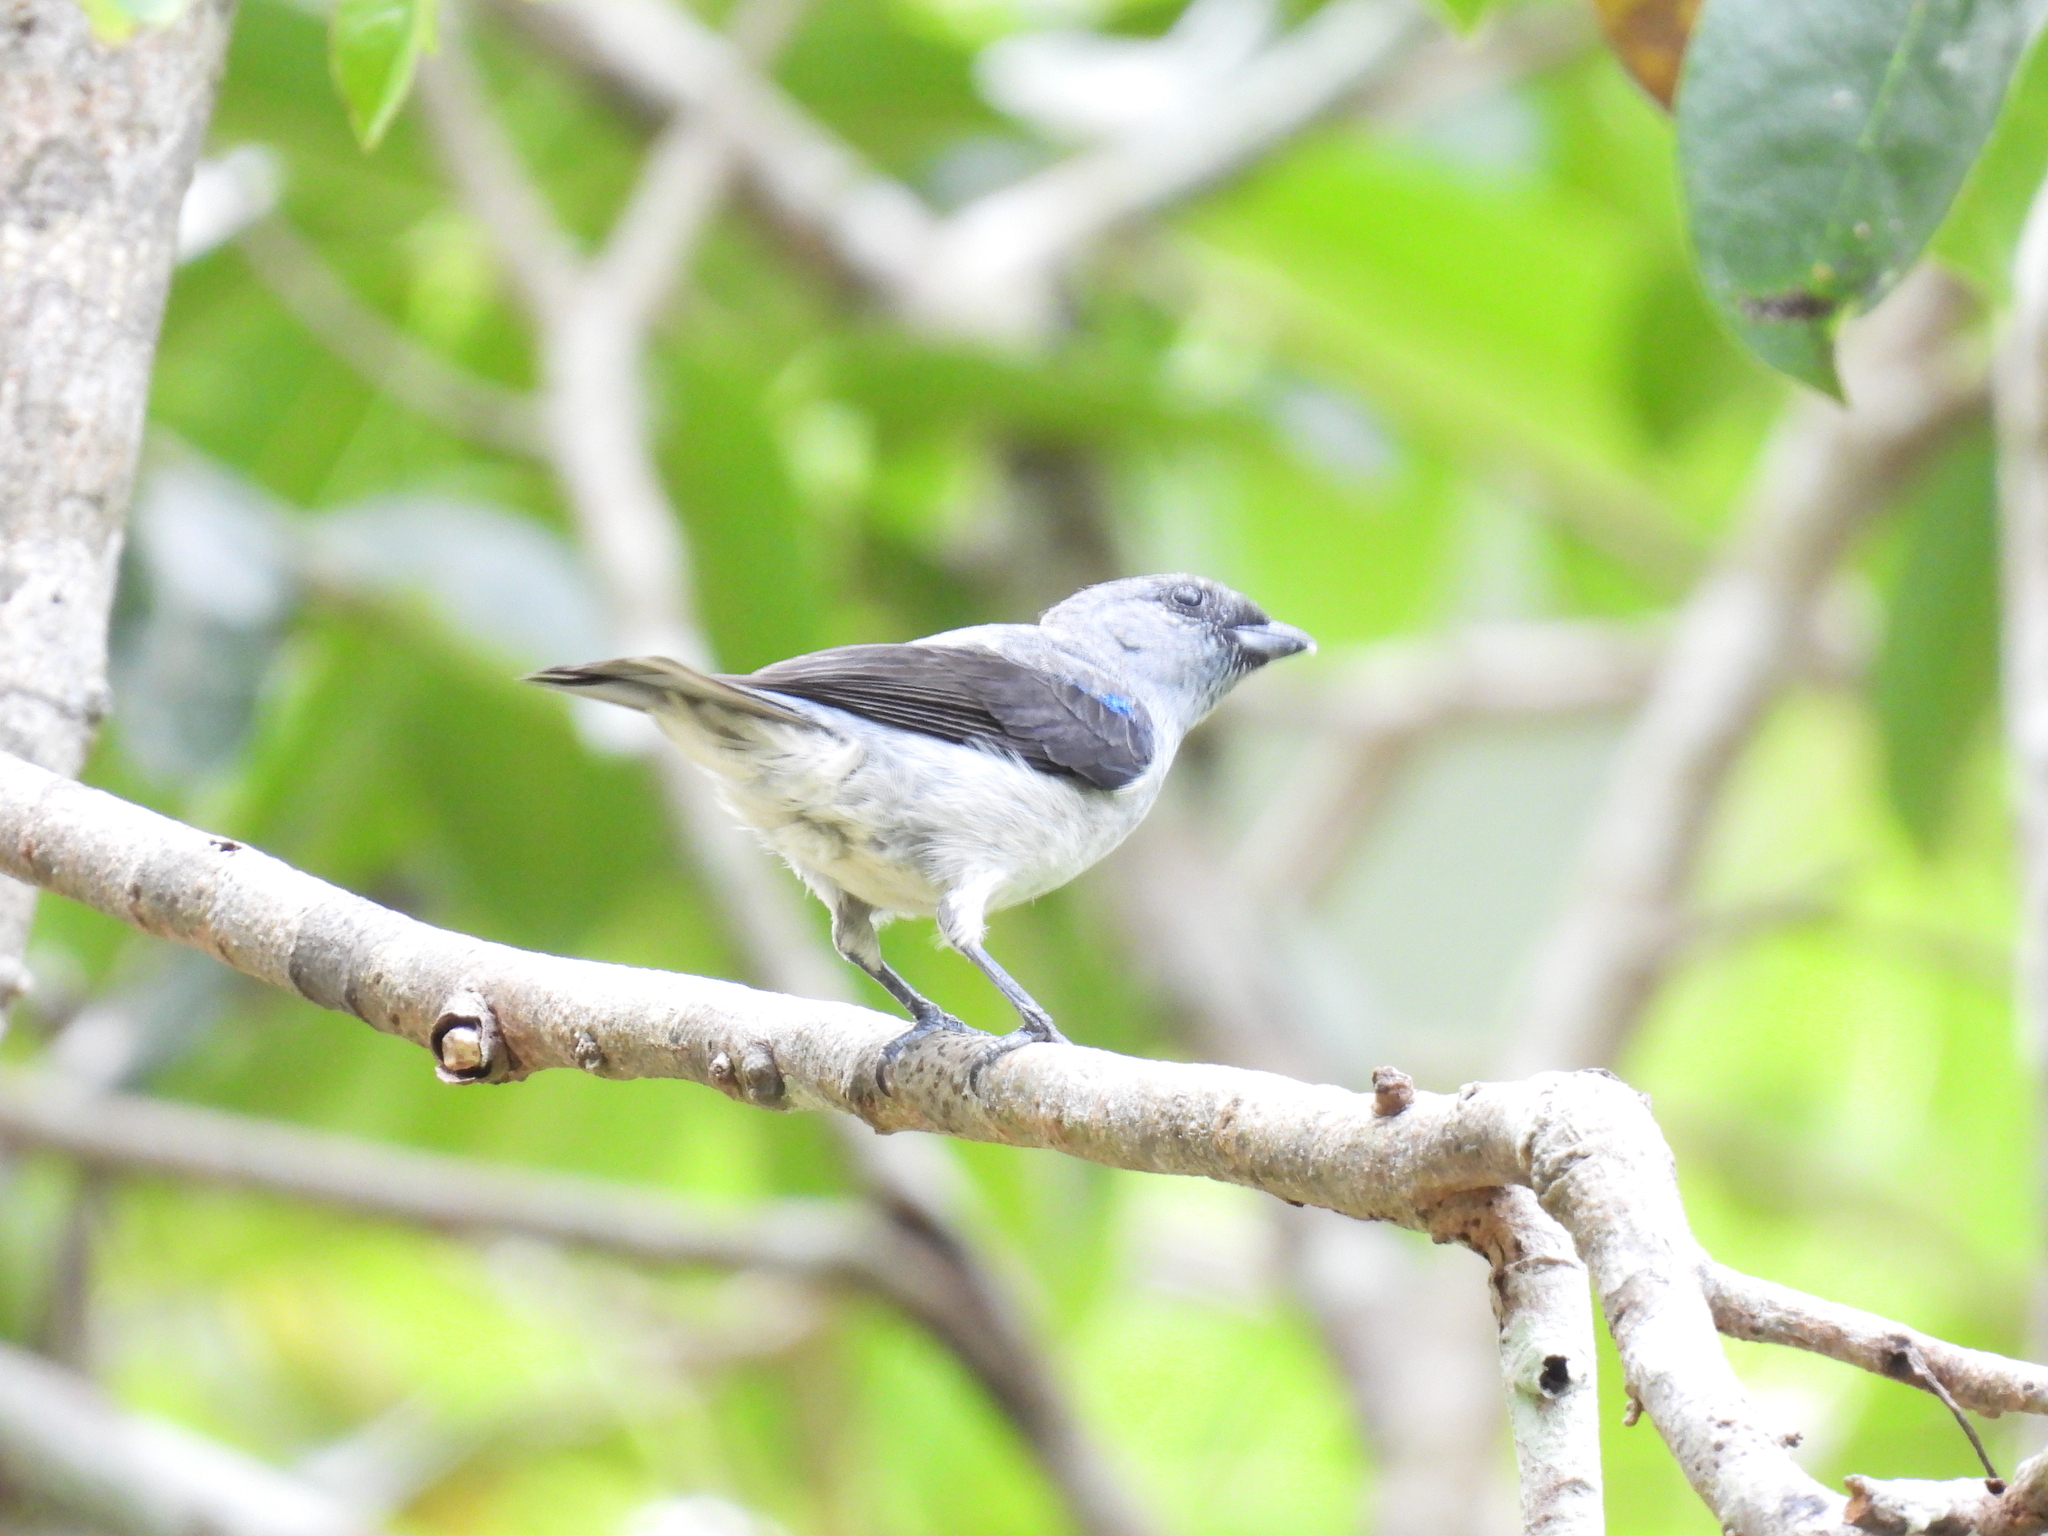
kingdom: Animalia
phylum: Chordata
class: Aves
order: Passeriformes
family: Thraupidae
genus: Tangara
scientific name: Tangara inornata
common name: Plain-colored tanager
